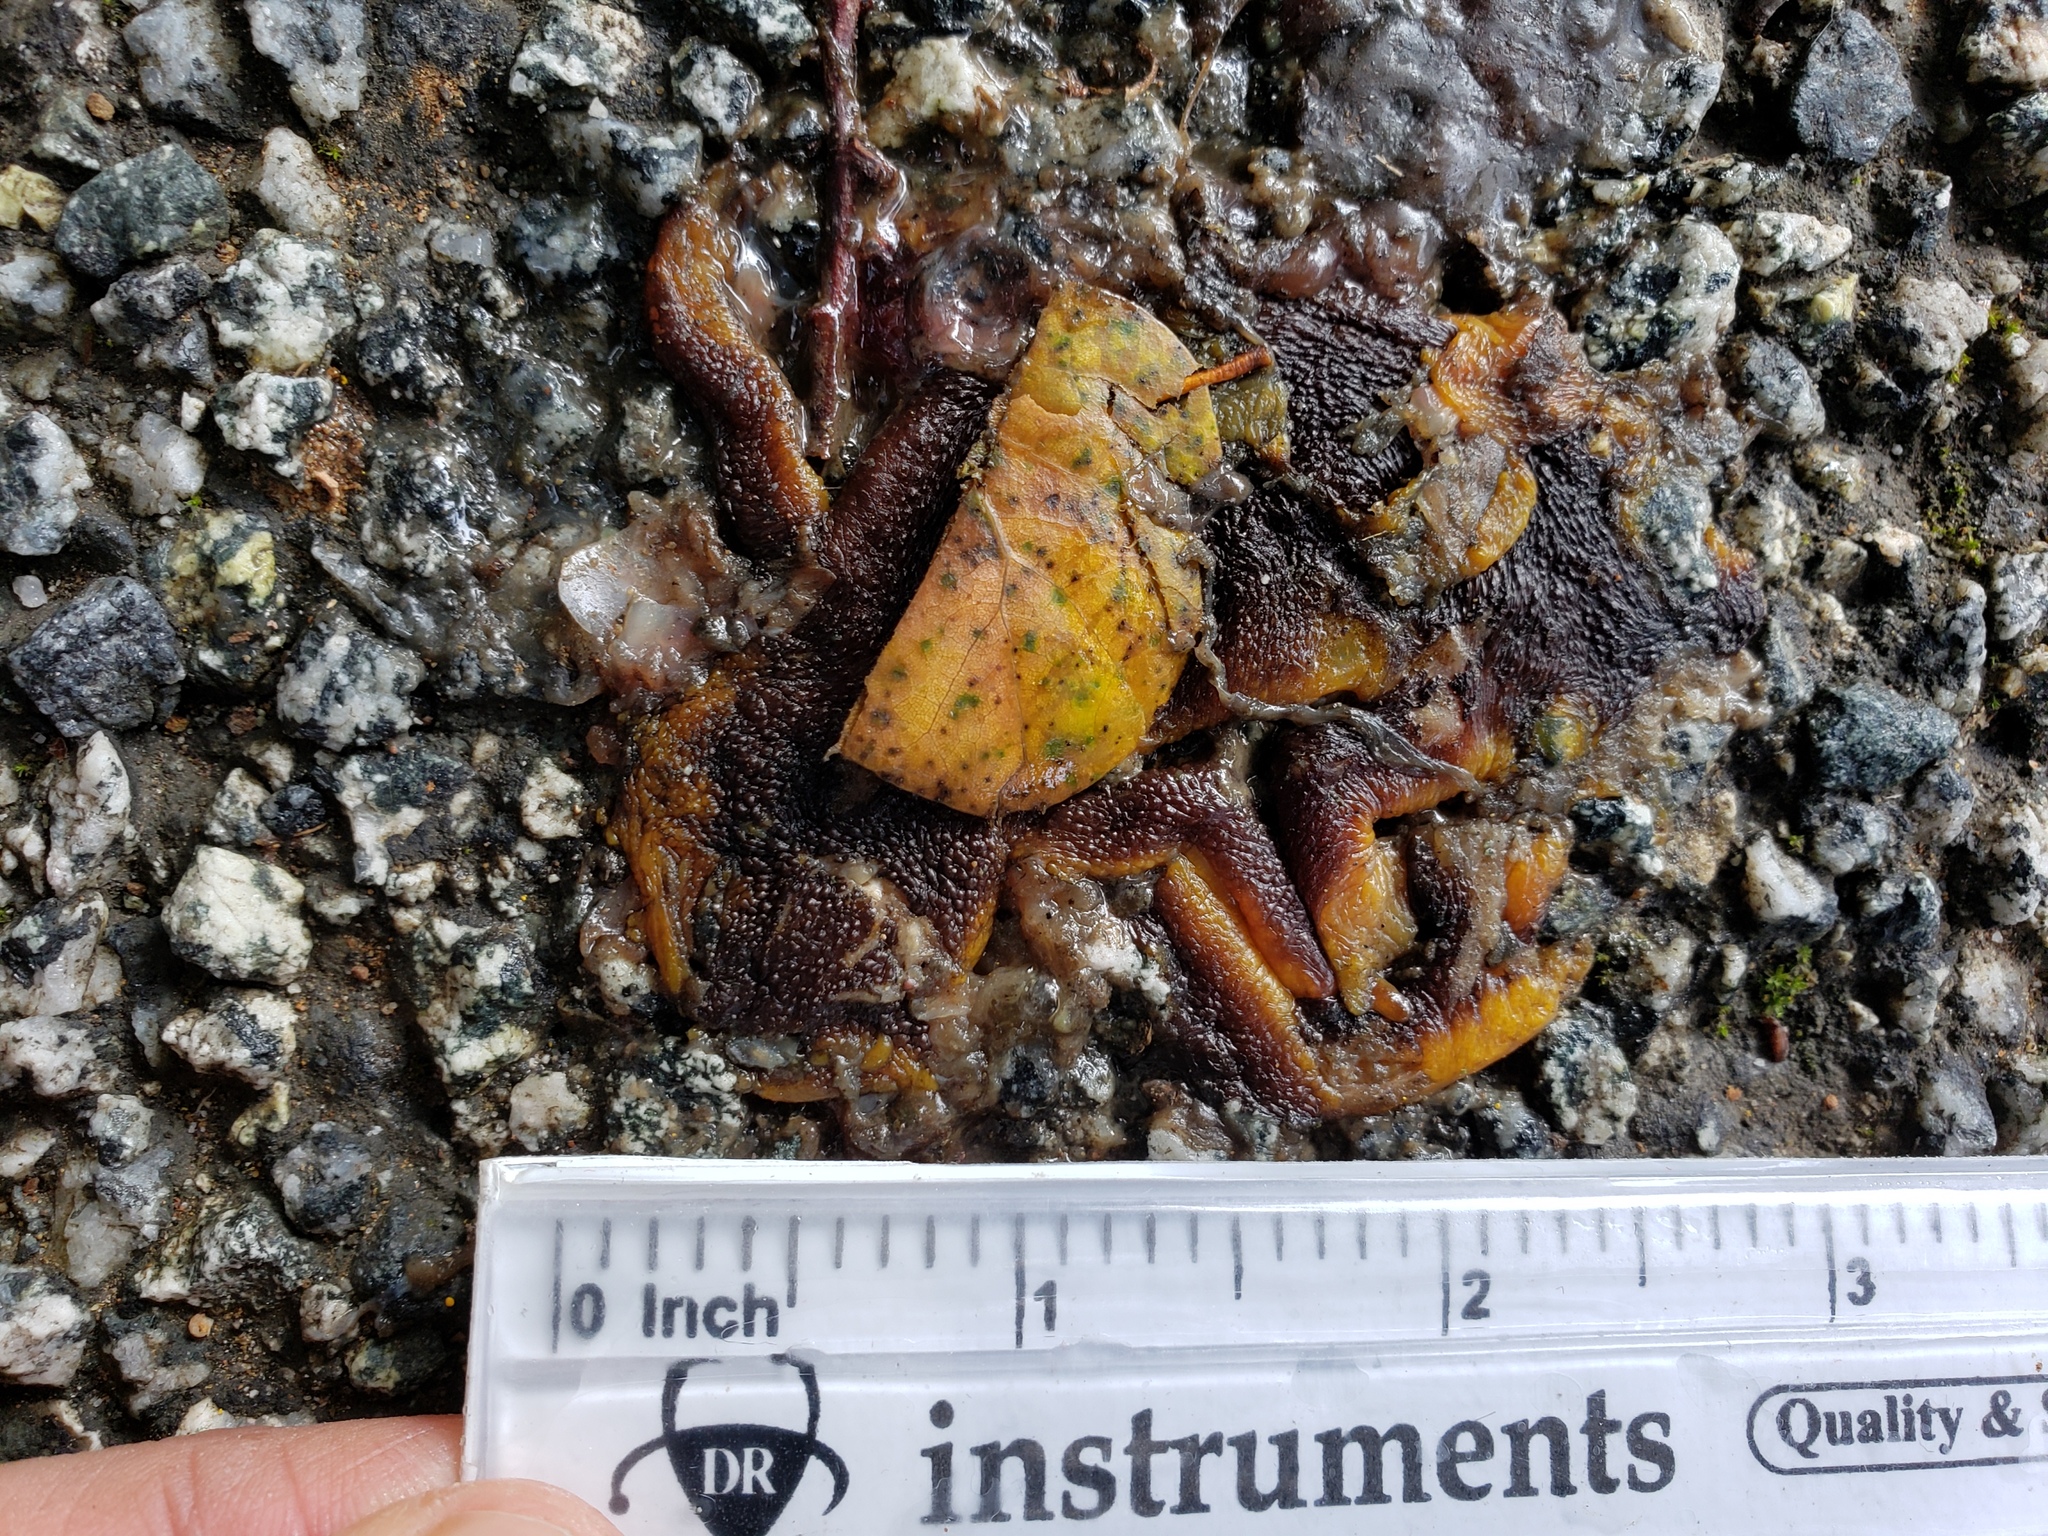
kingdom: Animalia
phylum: Chordata
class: Amphibia
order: Caudata
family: Salamandridae
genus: Taricha
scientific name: Taricha
